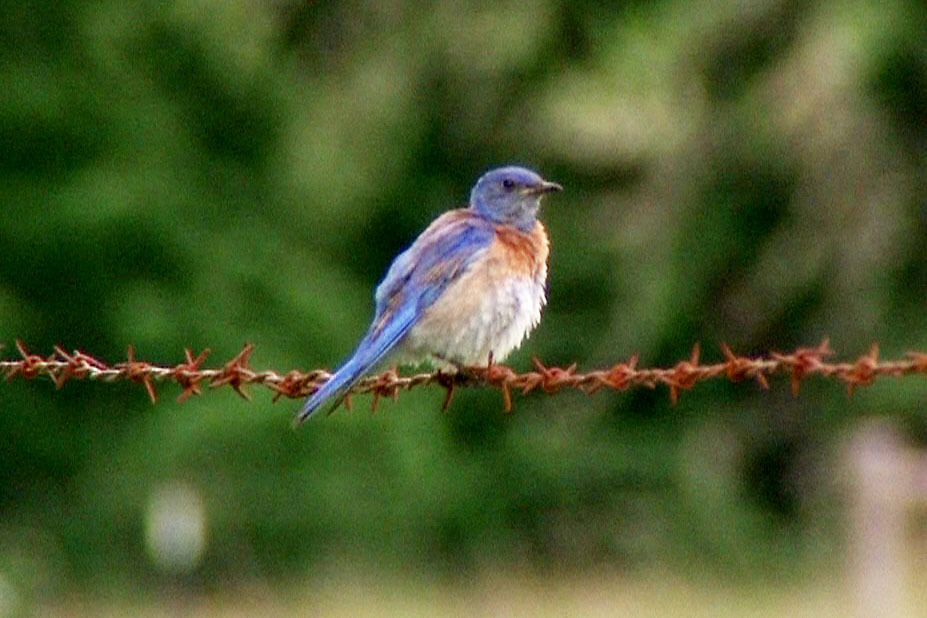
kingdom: Animalia
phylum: Chordata
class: Aves
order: Passeriformes
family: Turdidae
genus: Sialia
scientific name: Sialia mexicana
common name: Western bluebird
